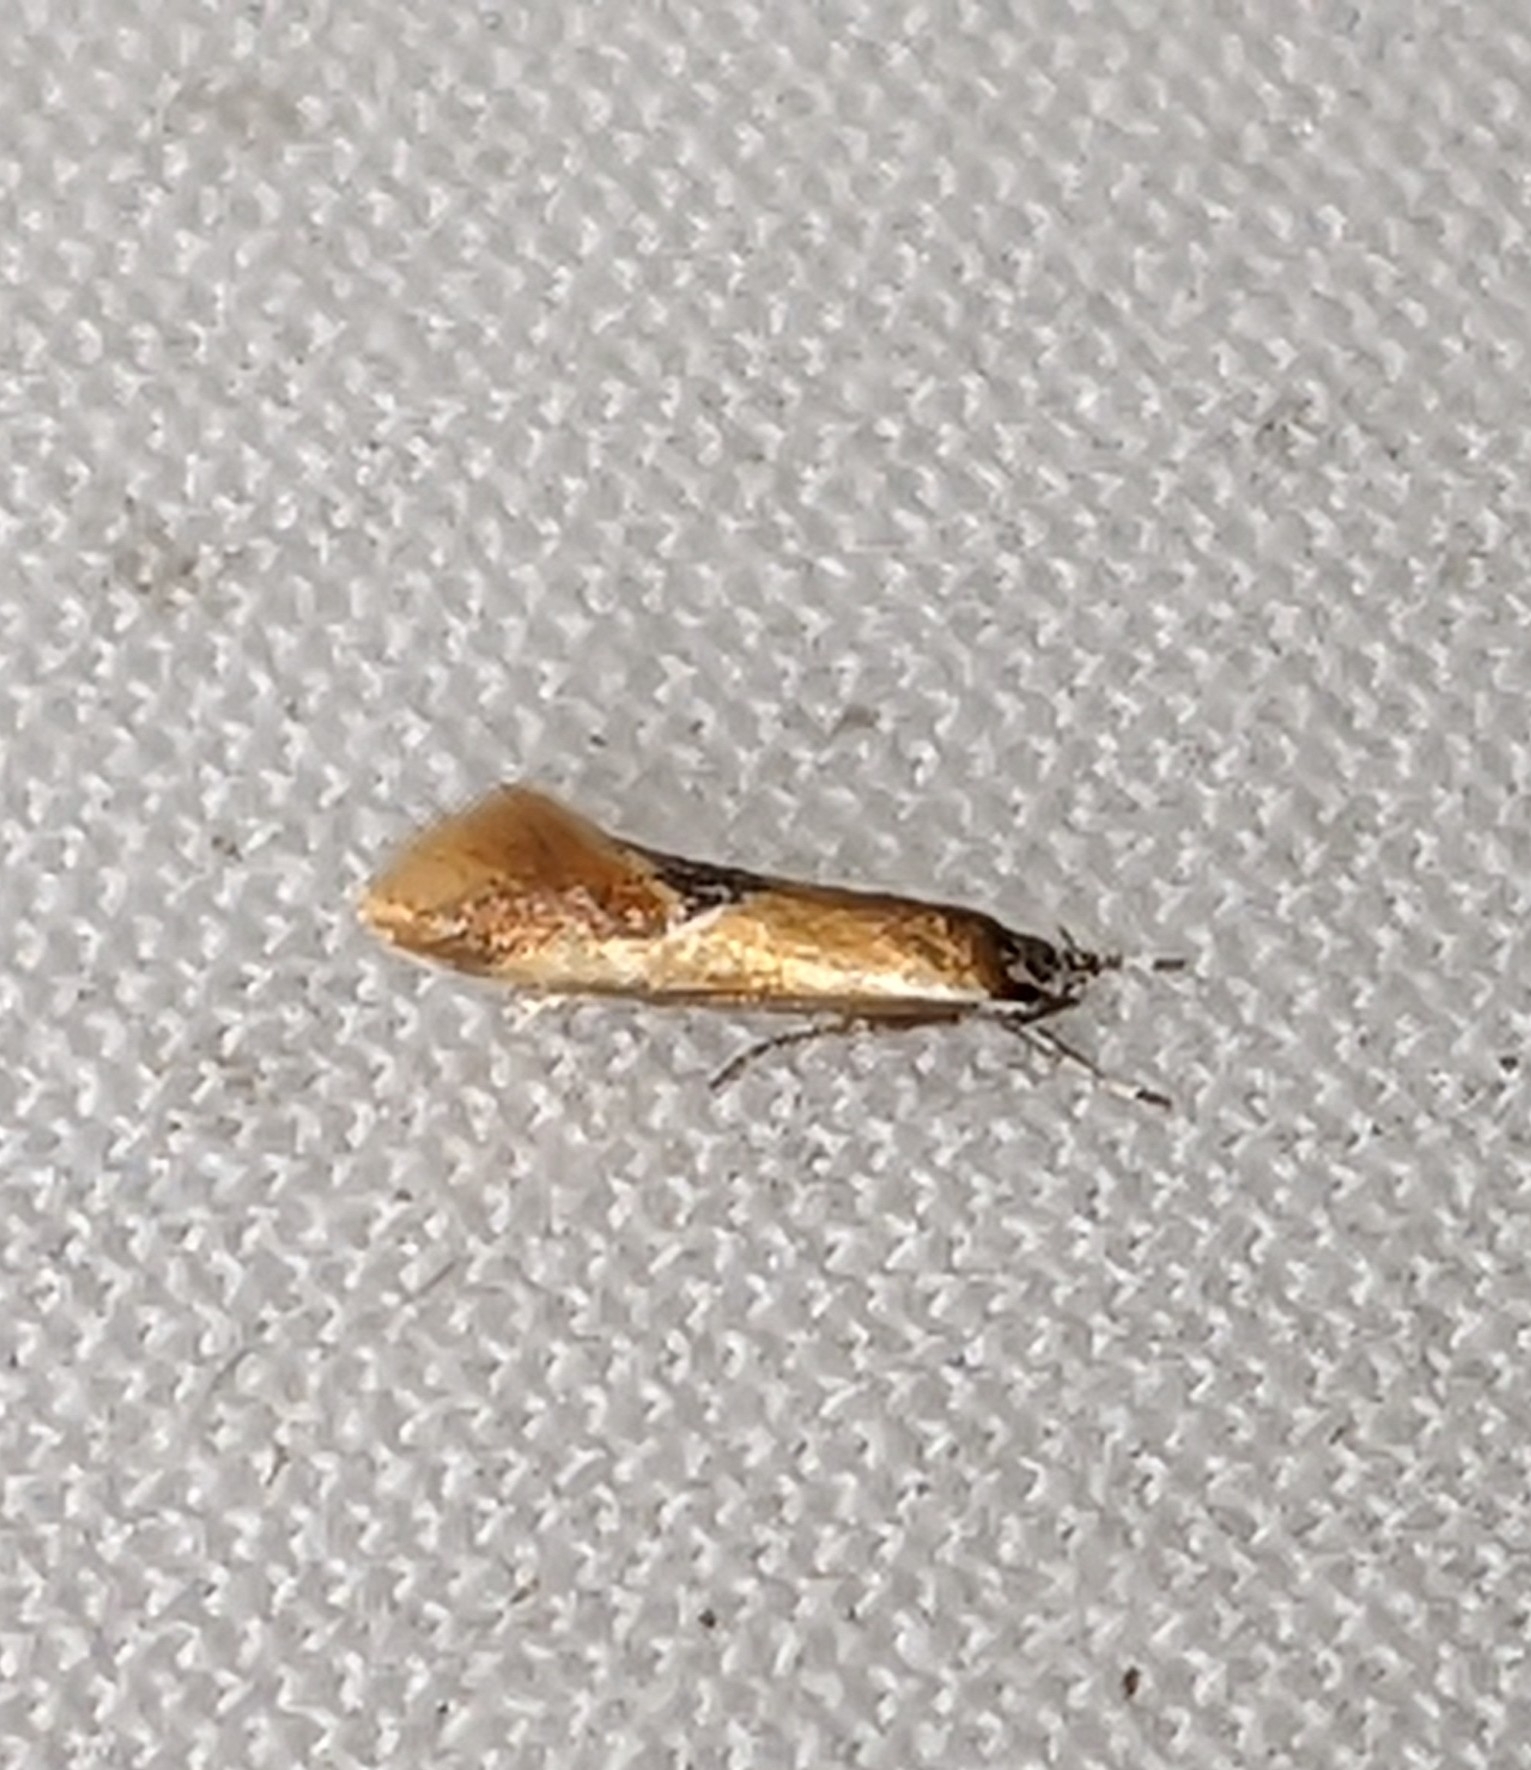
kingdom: Animalia
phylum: Arthropoda
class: Insecta
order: Lepidoptera
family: Oecophoridae
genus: Batia
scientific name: Batia lunaris
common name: Moth
